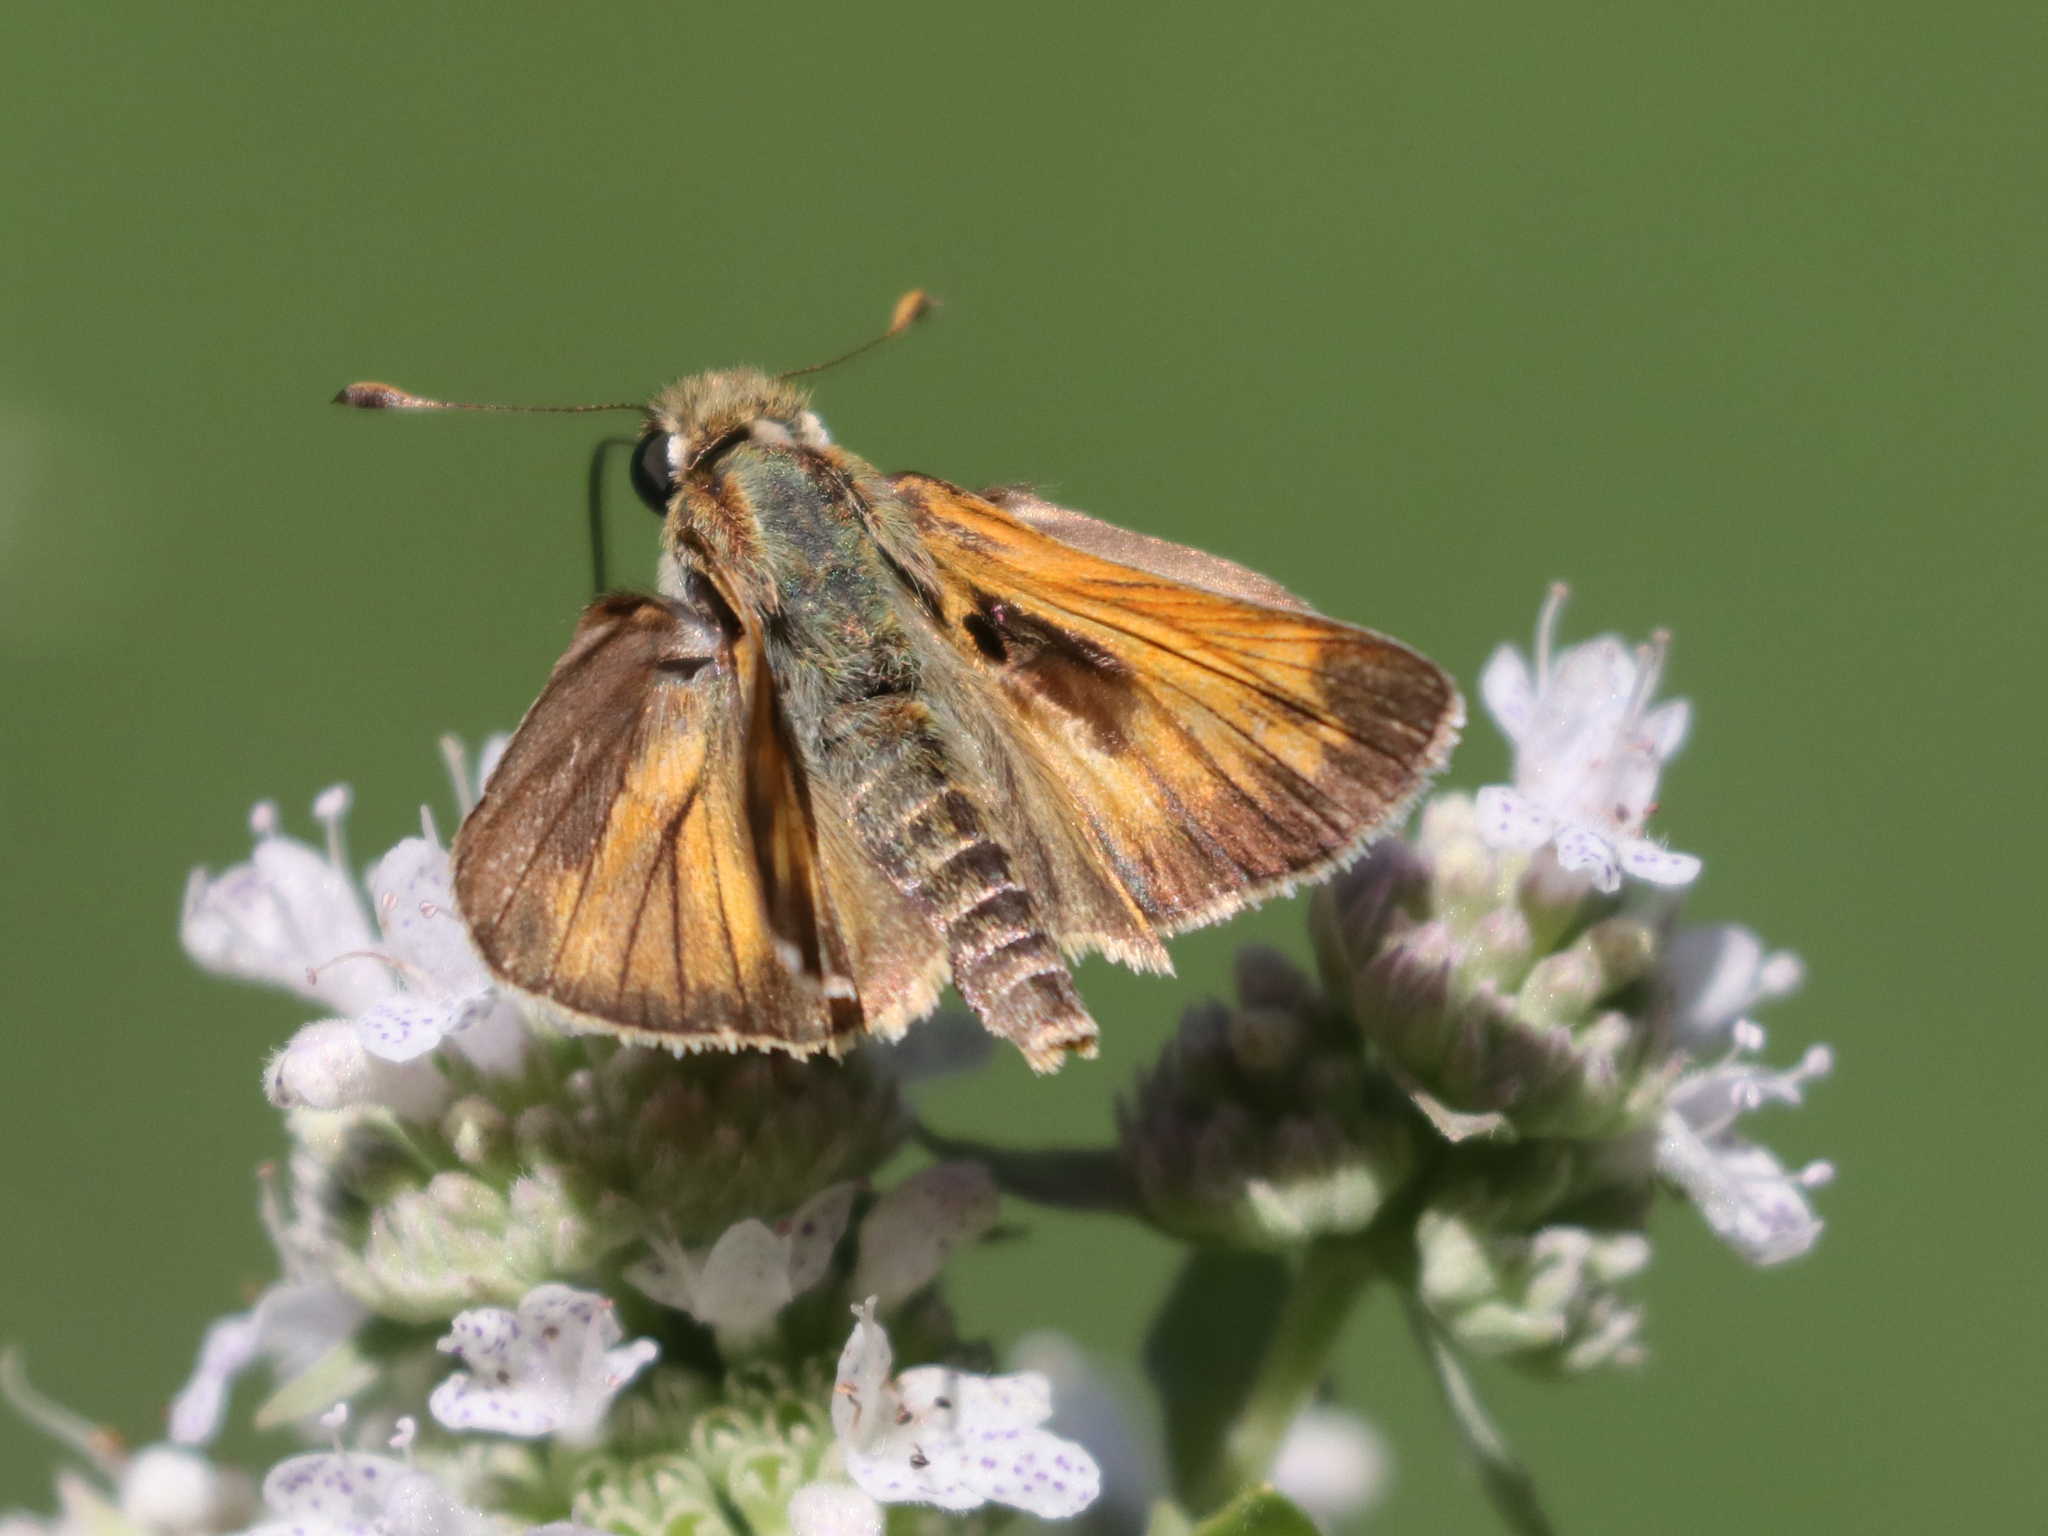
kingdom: Animalia
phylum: Arthropoda
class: Insecta
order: Lepidoptera
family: Hesperiidae
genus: Atalopedes
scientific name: Atalopedes
